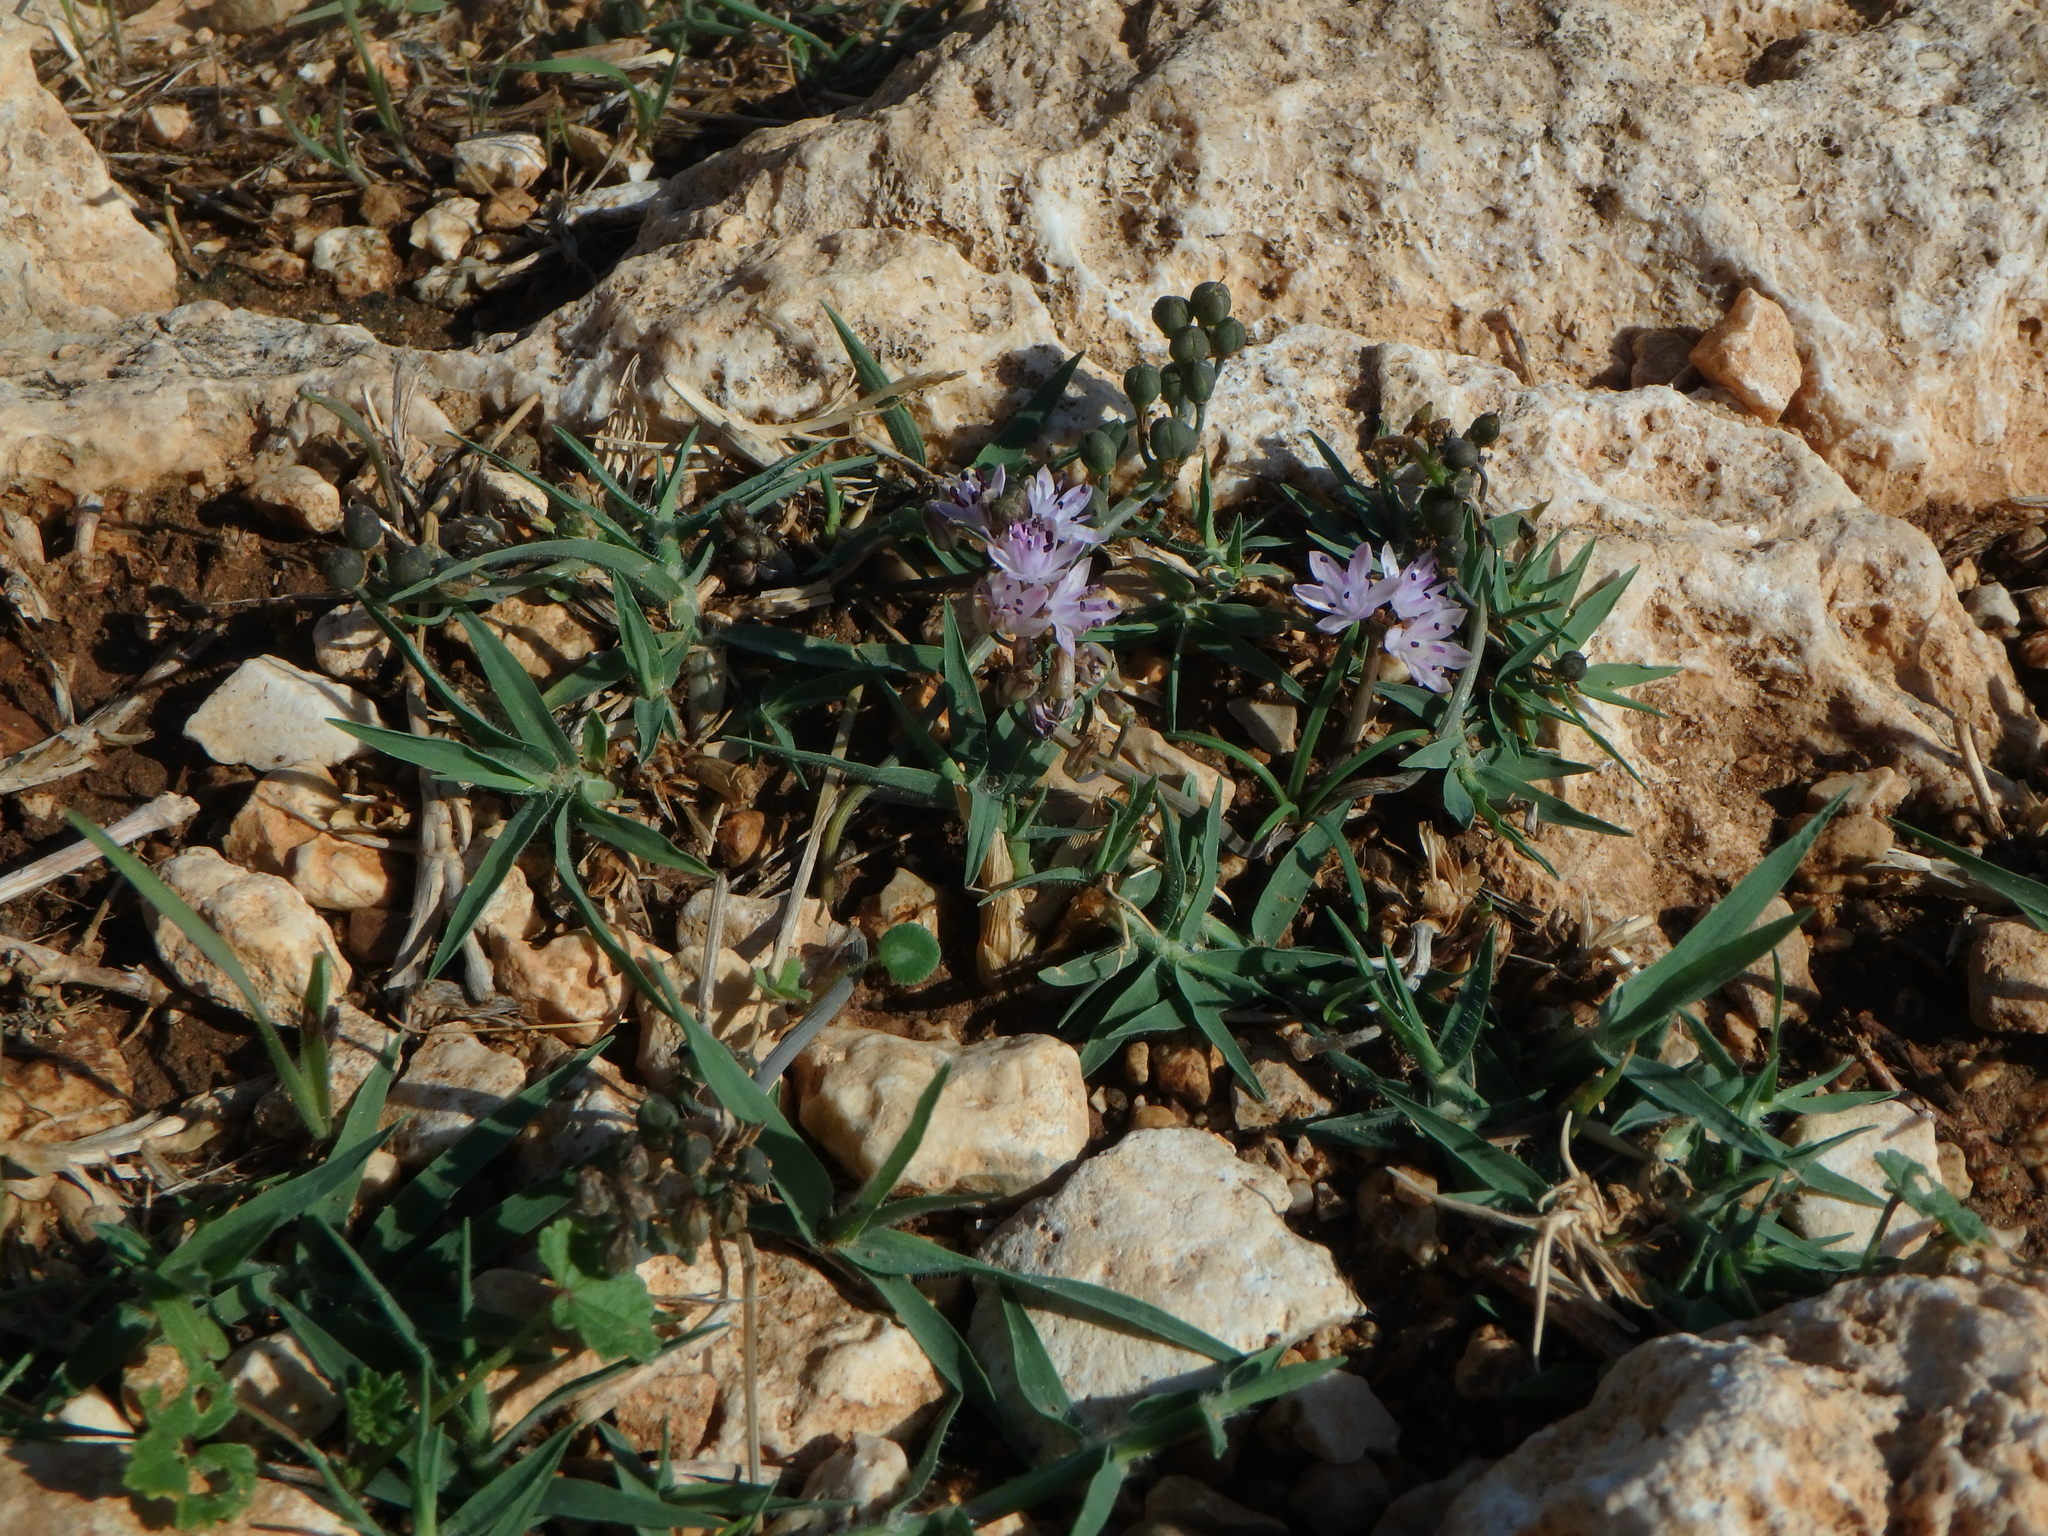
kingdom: Plantae
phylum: Tracheophyta
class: Liliopsida
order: Asparagales
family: Asparagaceae
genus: Prospero
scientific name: Prospero autumnale
